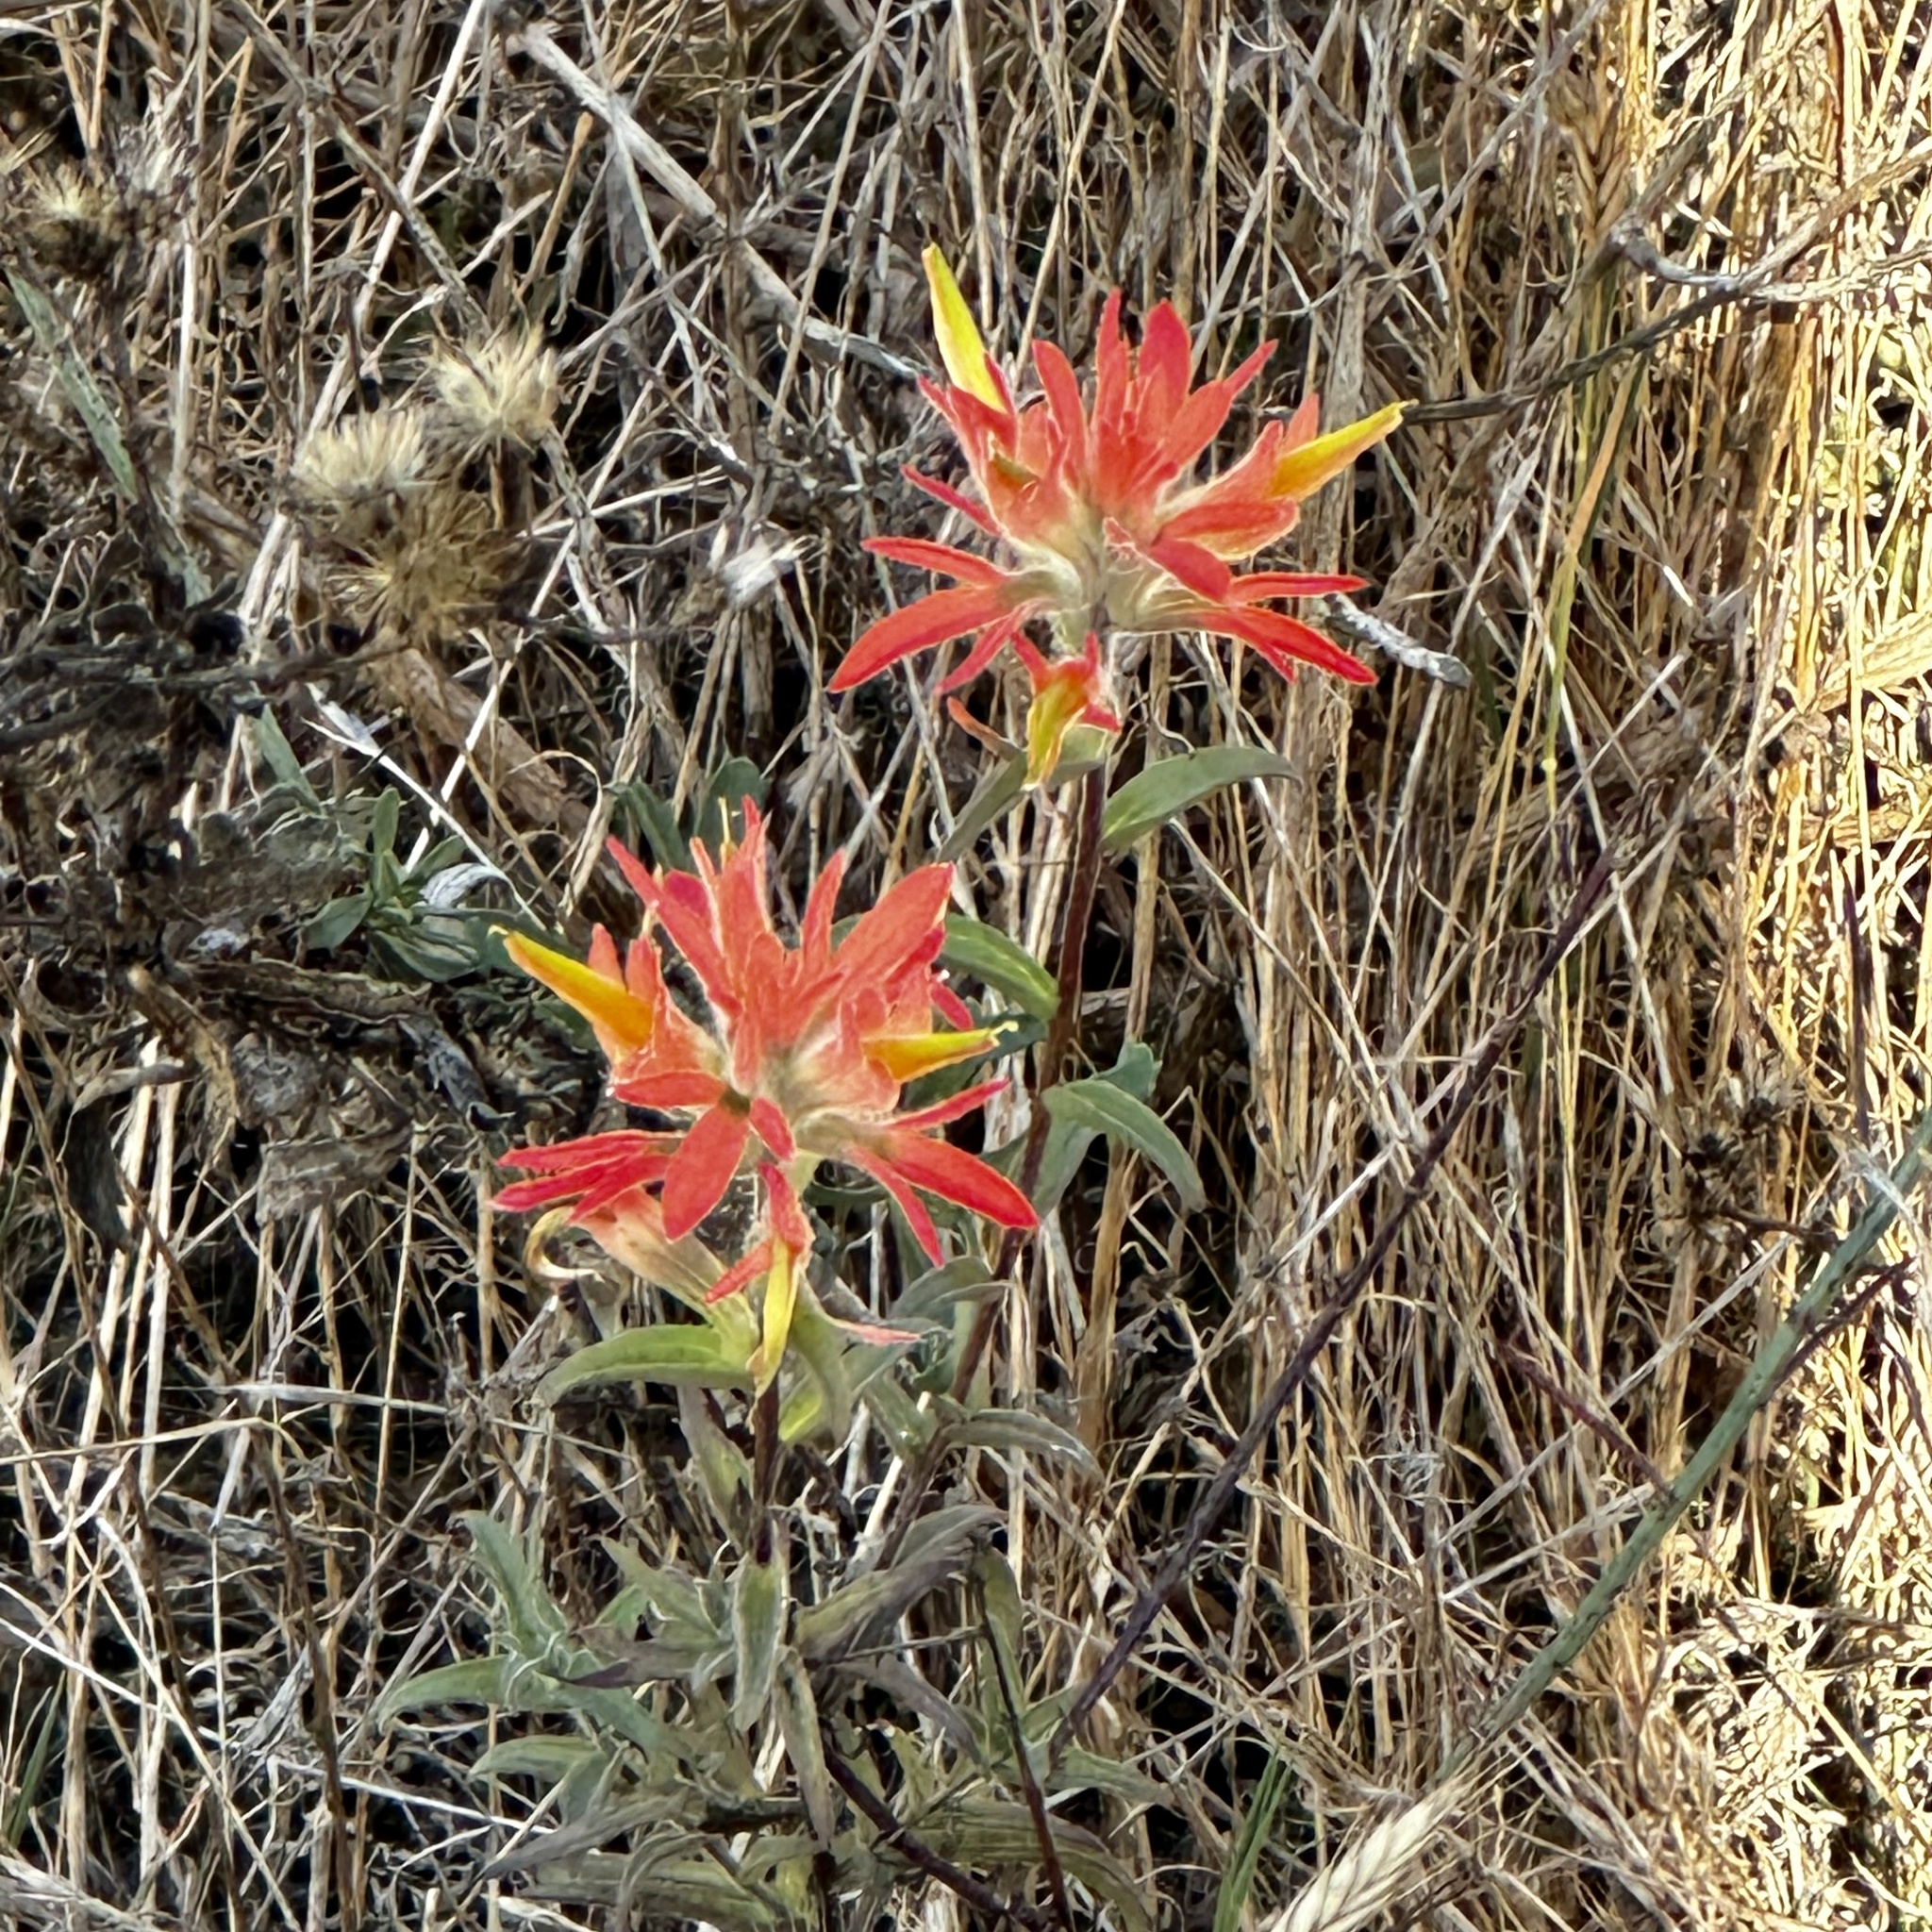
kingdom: Plantae
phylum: Tracheophyta
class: Magnoliopsida
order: Lamiales
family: Orobanchaceae
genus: Castilleja
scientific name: Castilleja affinis
